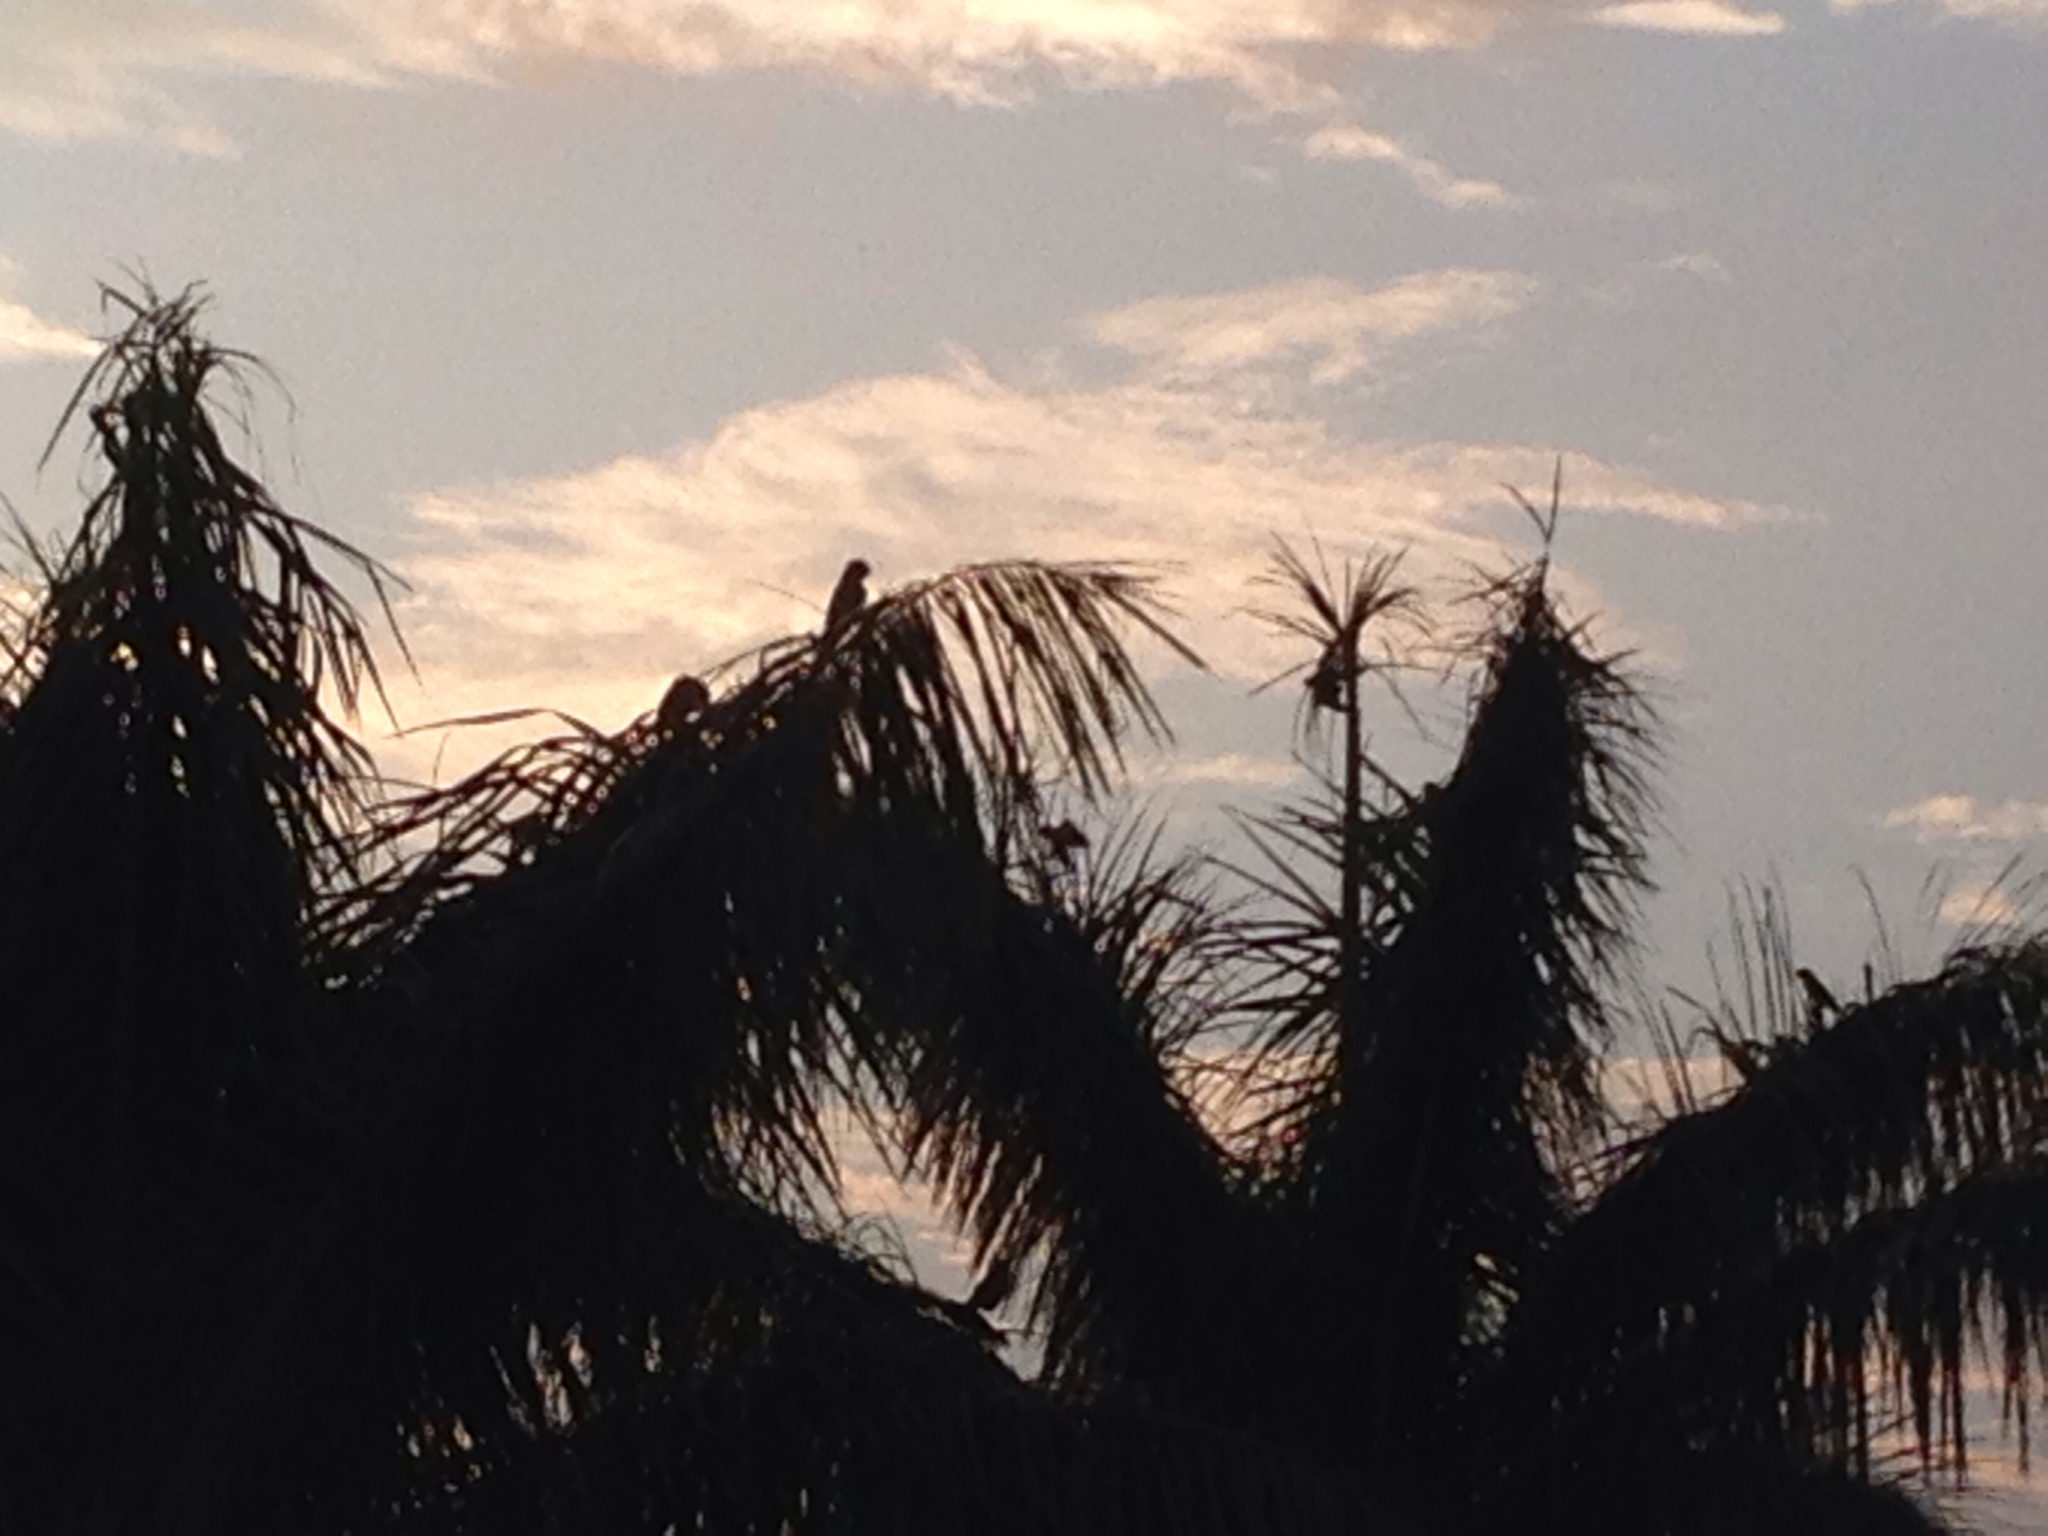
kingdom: Animalia
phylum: Chordata
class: Aves
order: Psittaciformes
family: Psittacidae
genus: Aratinga
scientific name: Aratinga finschi
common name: Crimson-fronted parakeet
